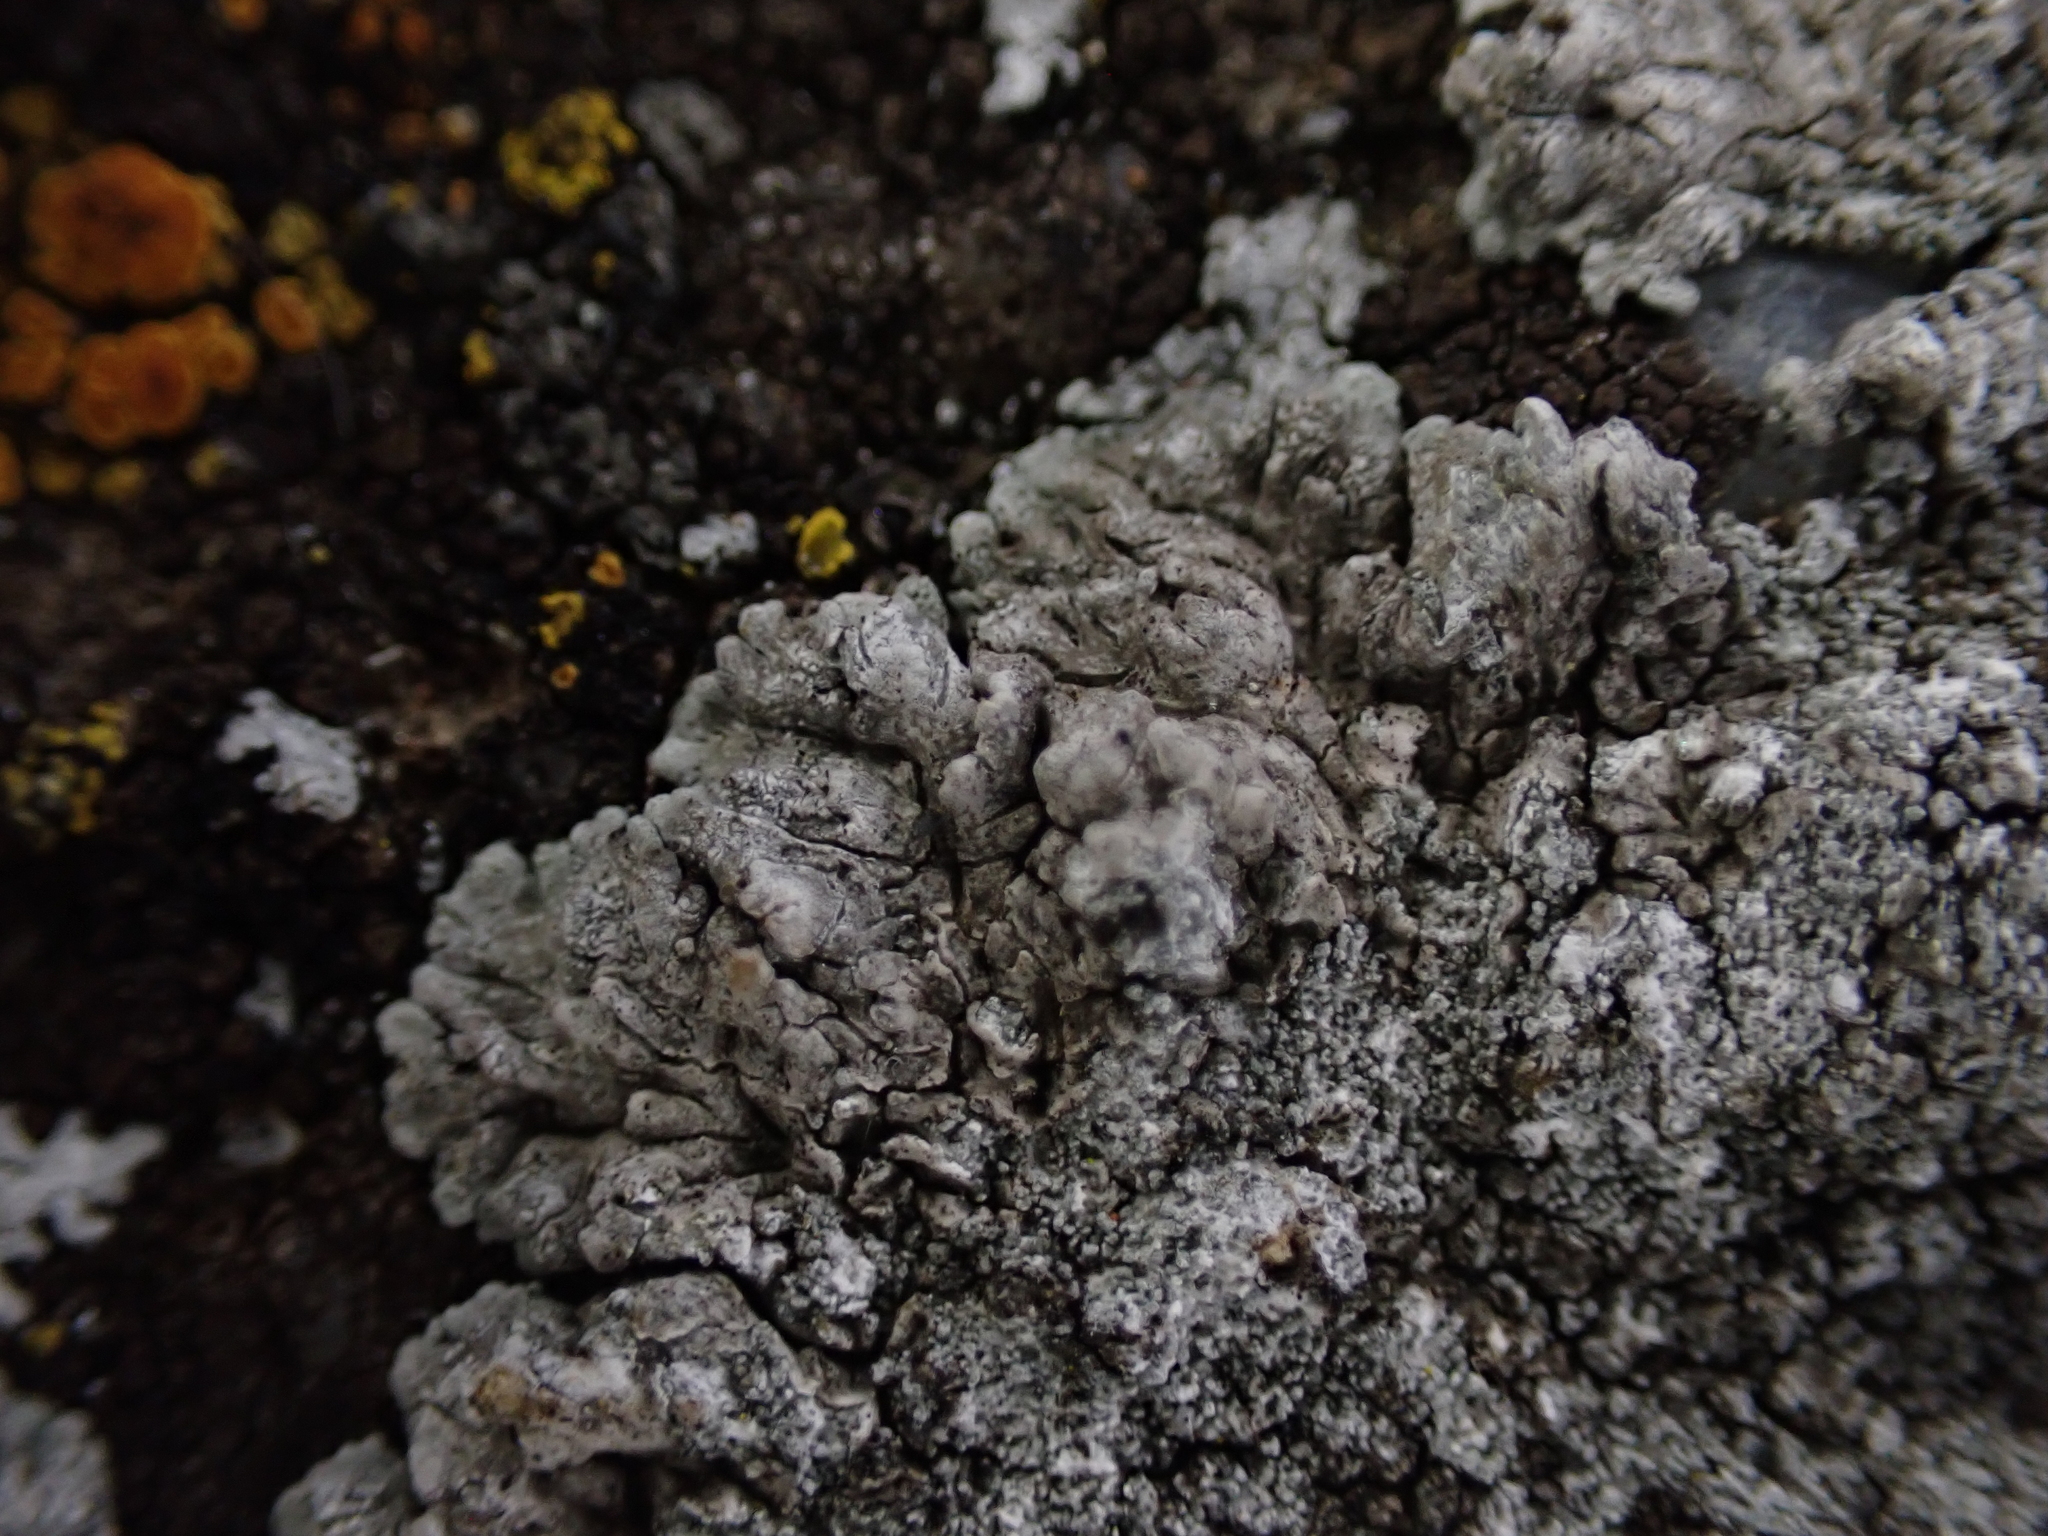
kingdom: Fungi
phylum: Ascomycota
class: Lecanoromycetes
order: Teloschistales
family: Teloschistaceae
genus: Kuettlingeria
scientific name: Kuettlingeria teicholyta
